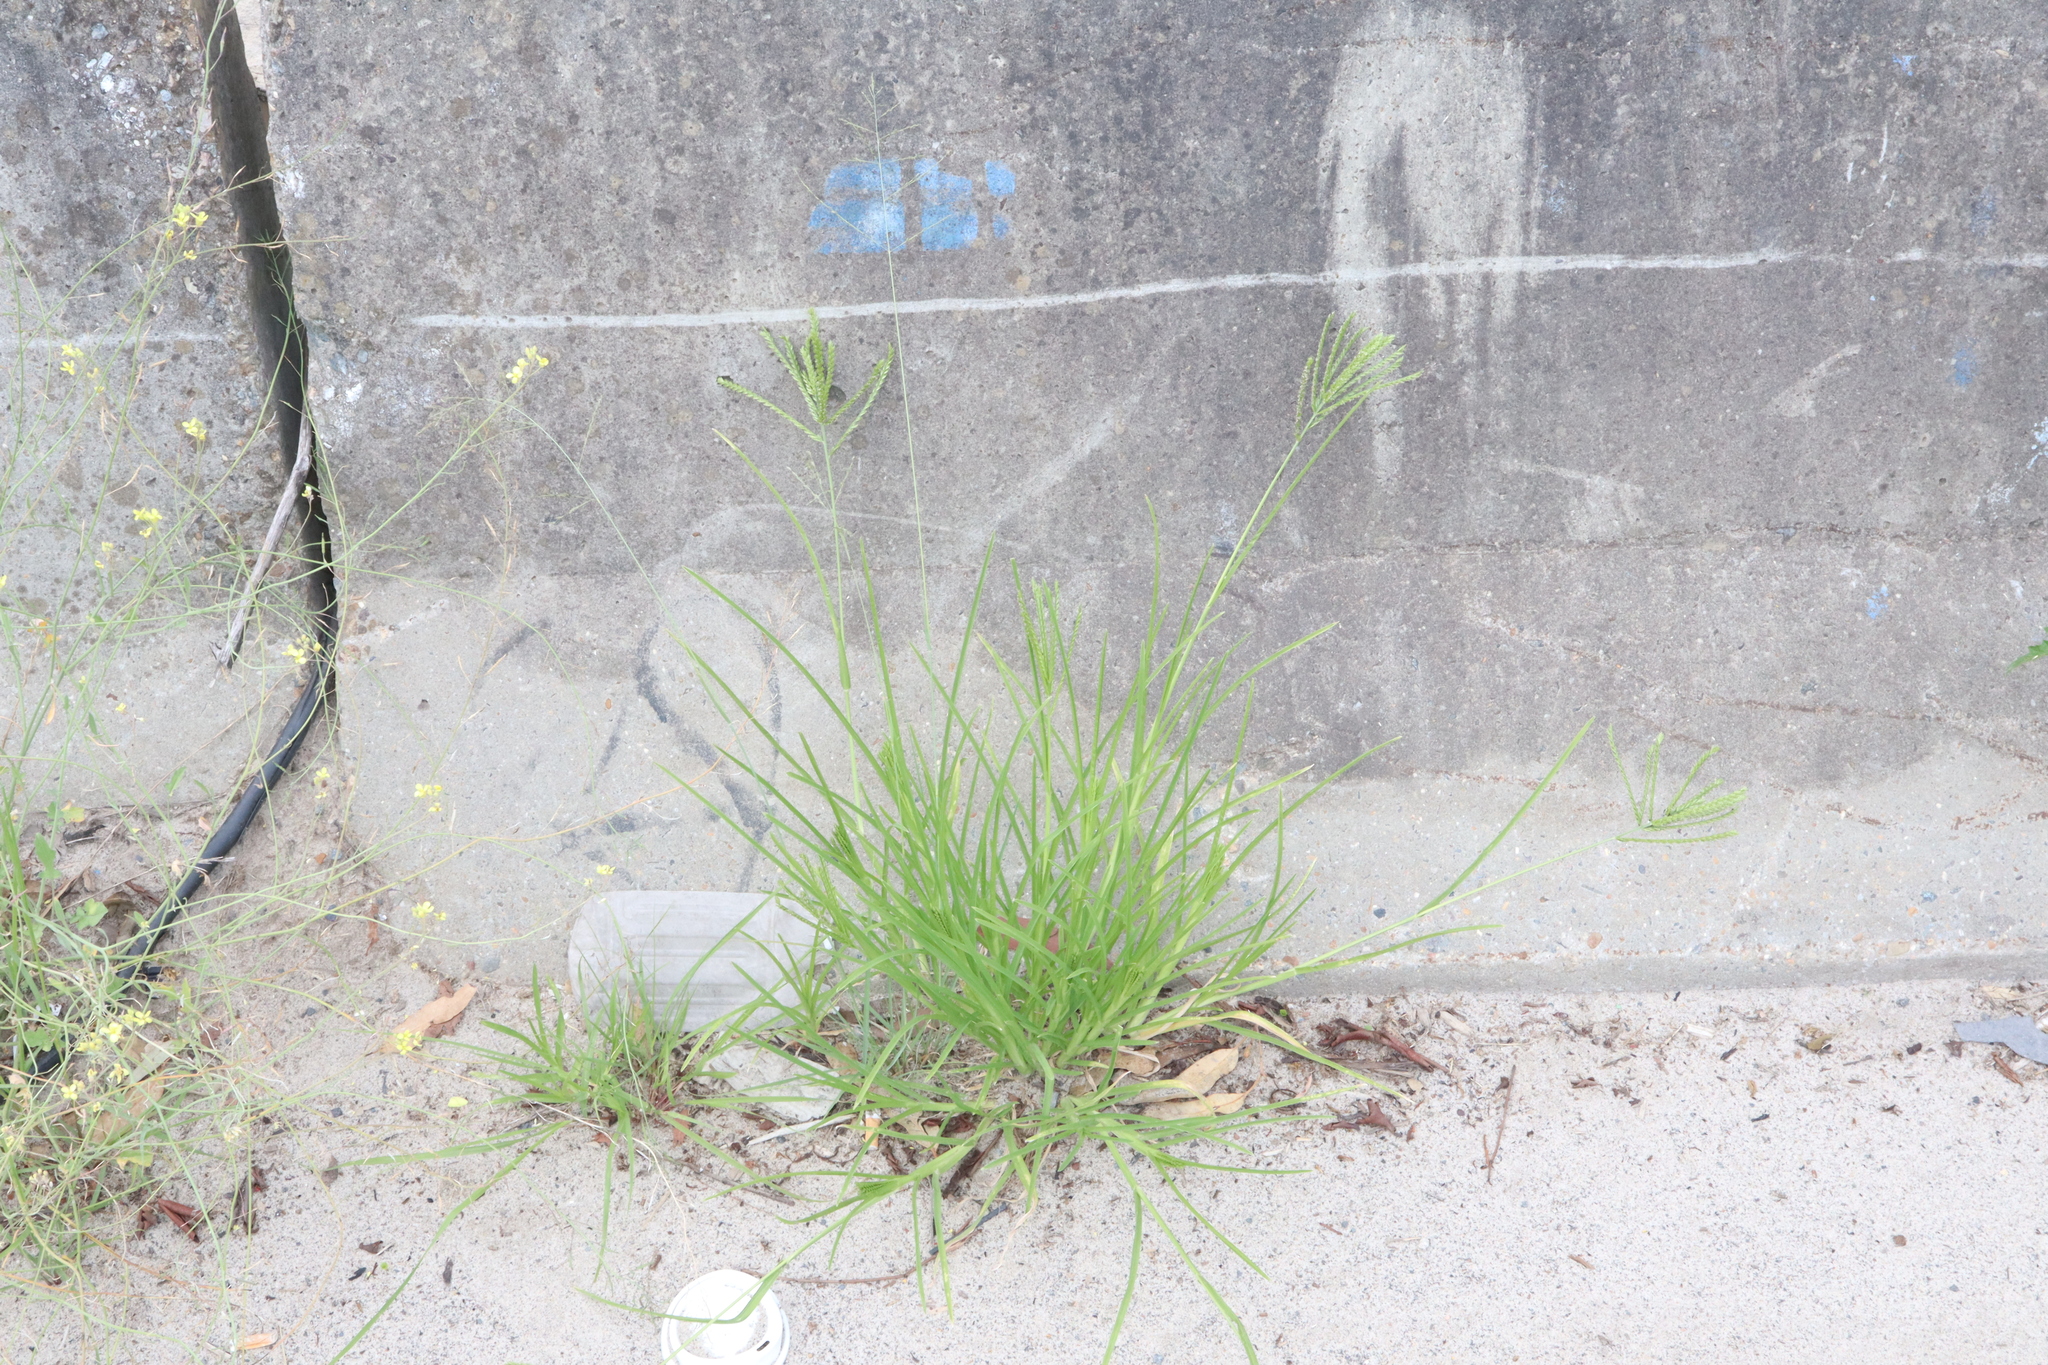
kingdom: Plantae
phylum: Tracheophyta
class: Liliopsida
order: Poales
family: Poaceae
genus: Eleusine
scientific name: Eleusine indica
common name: Yard-grass
